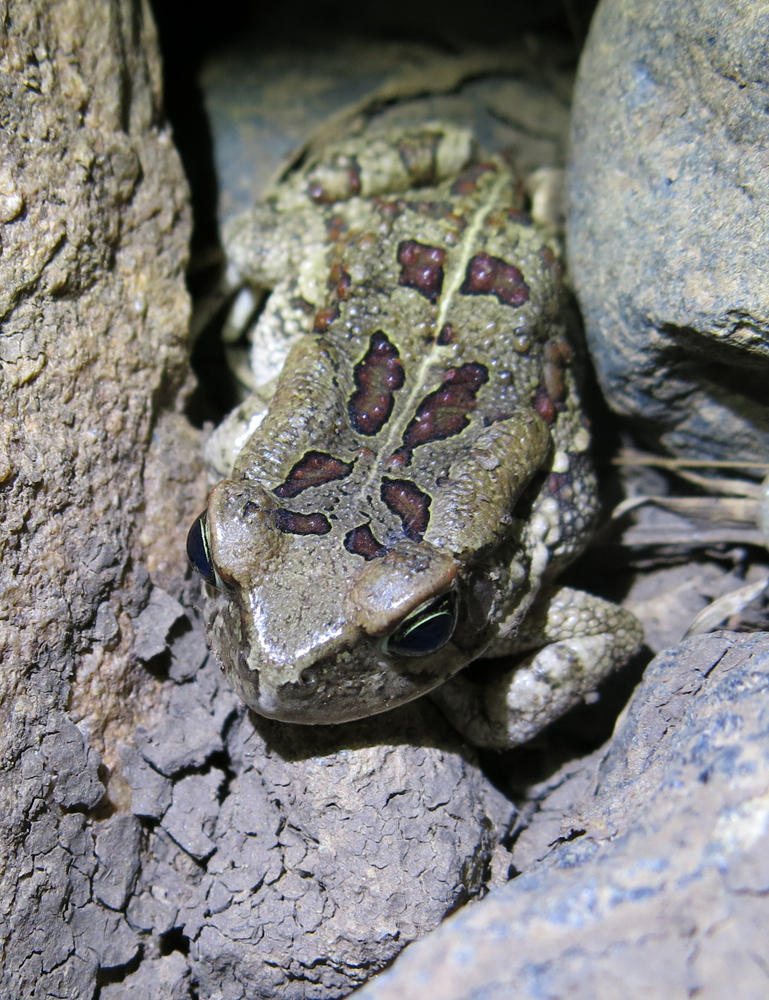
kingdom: Animalia
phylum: Chordata
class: Amphibia
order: Anura
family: Bufonidae
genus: Sclerophrys
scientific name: Sclerophrys garmani
